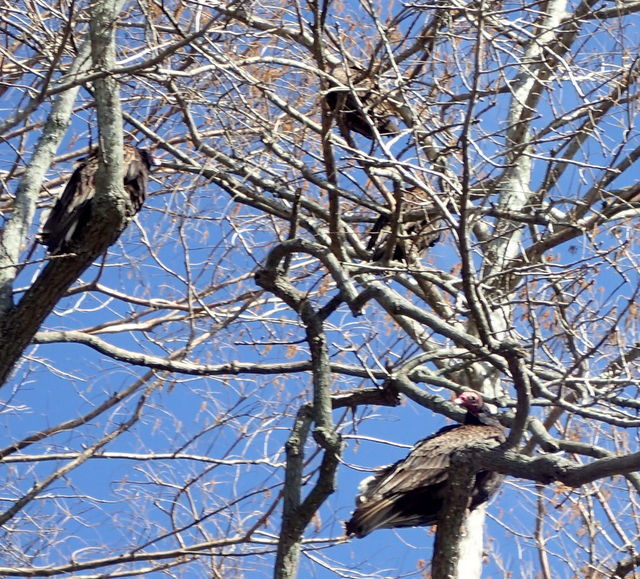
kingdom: Animalia
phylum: Chordata
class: Aves
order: Accipitriformes
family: Cathartidae
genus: Cathartes
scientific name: Cathartes aura
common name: Turkey vulture
